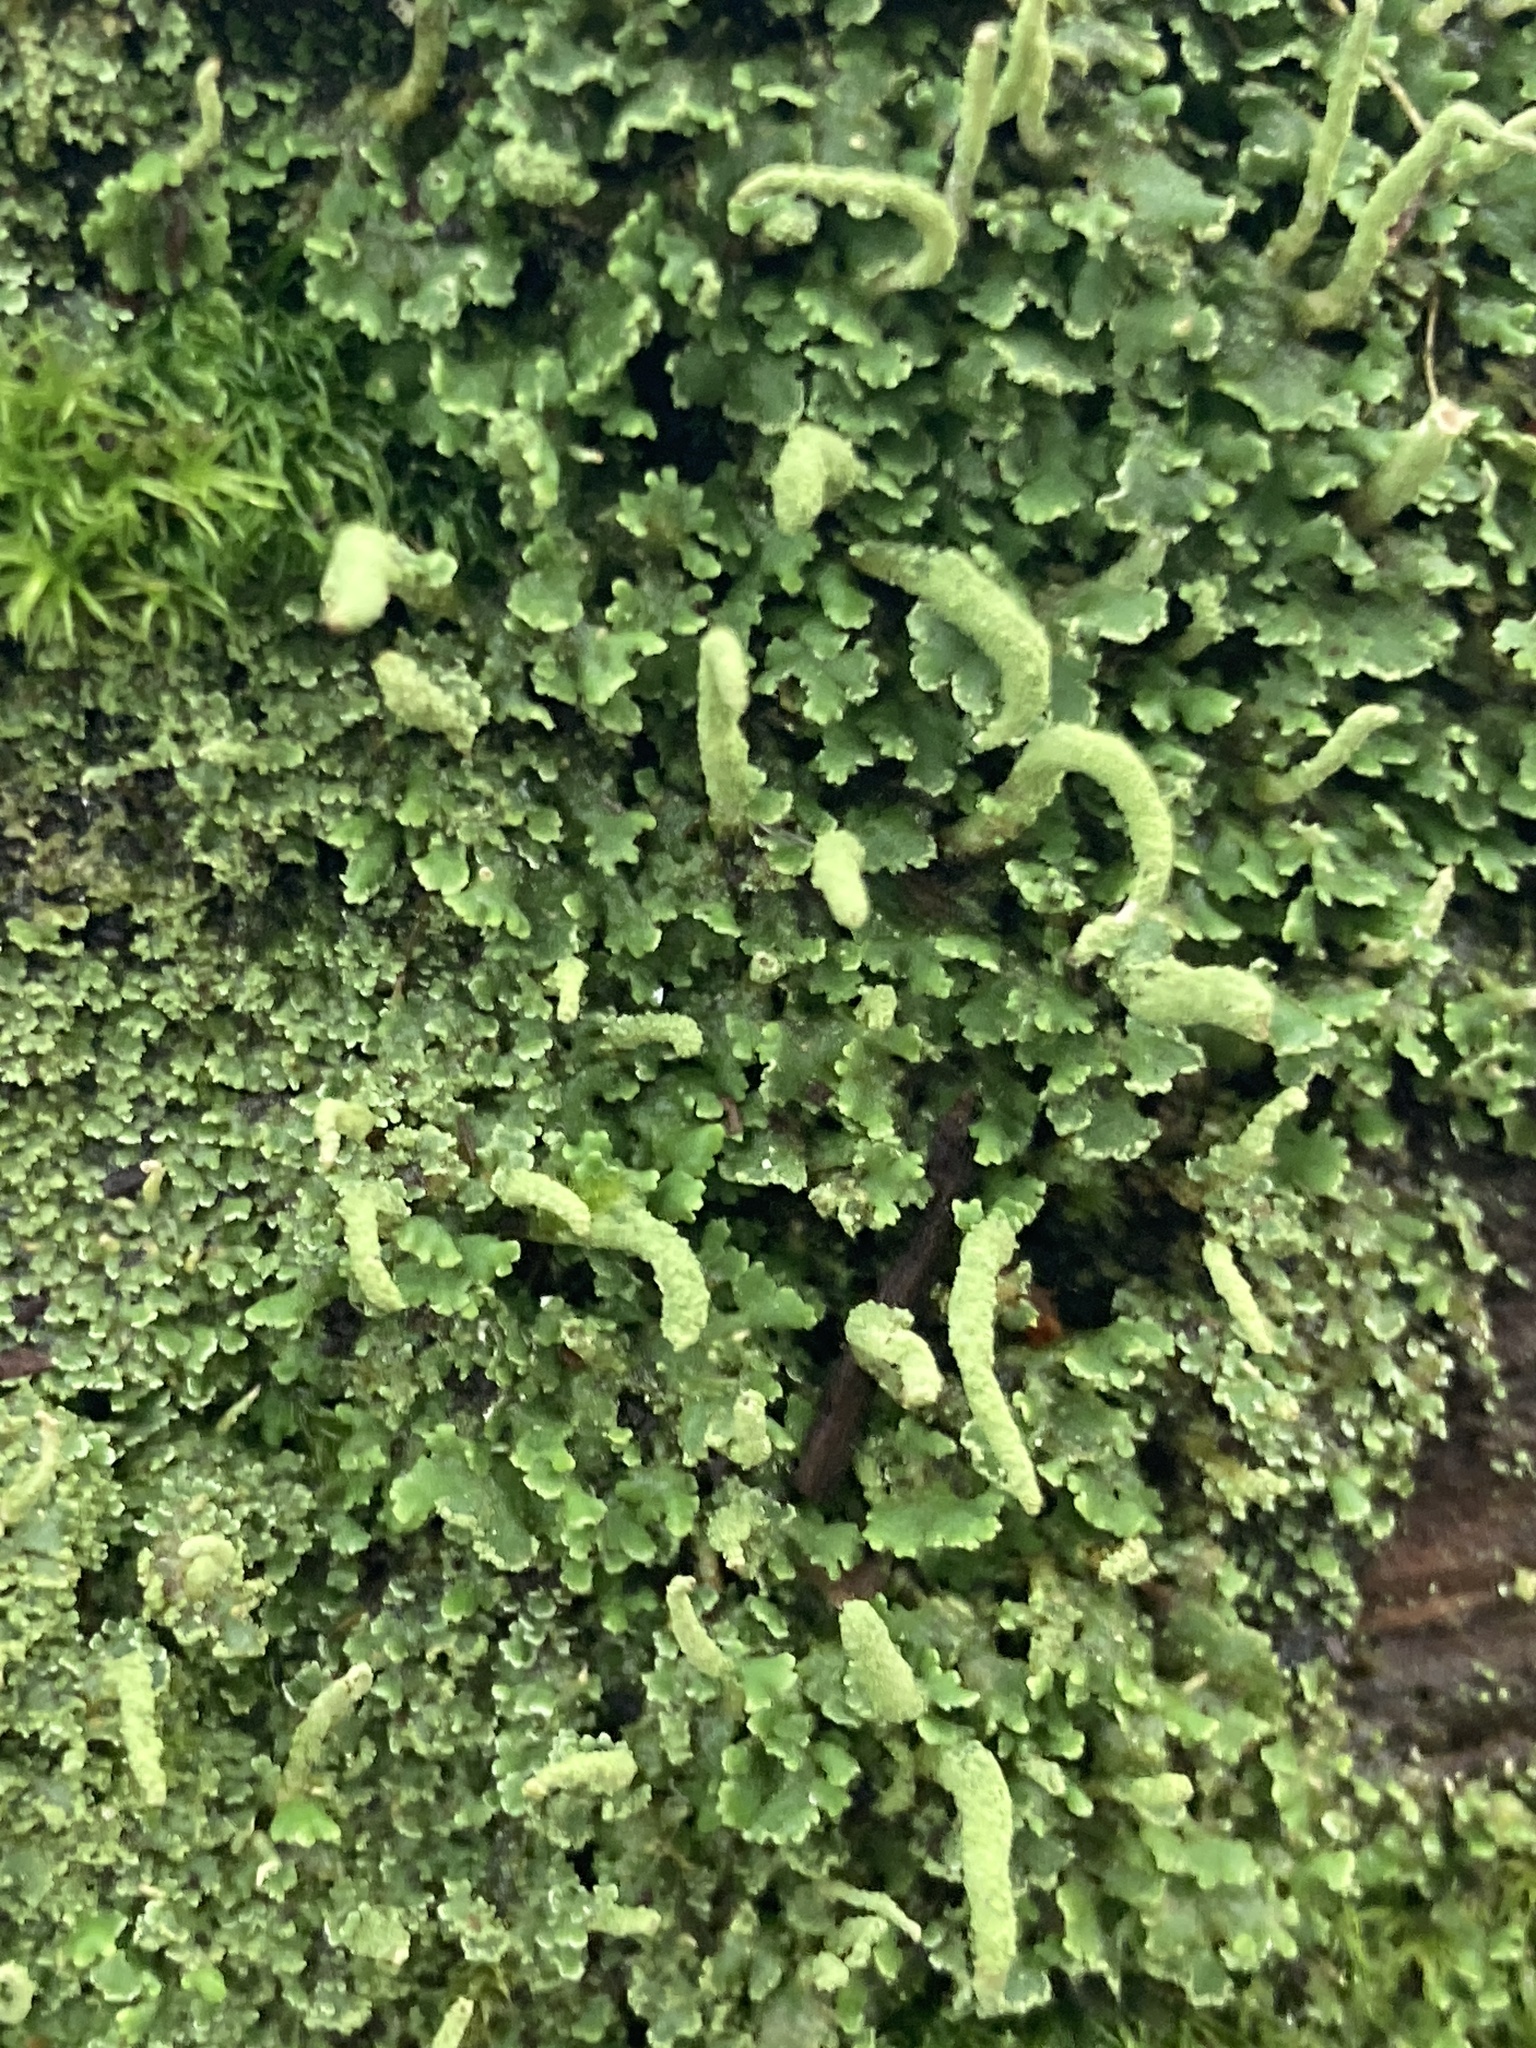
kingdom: Fungi
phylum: Ascomycota
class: Lecanoromycetes
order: Lecanorales
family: Cladoniaceae
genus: Cladonia
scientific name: Cladonia coniocraea
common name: Common powderhorn
